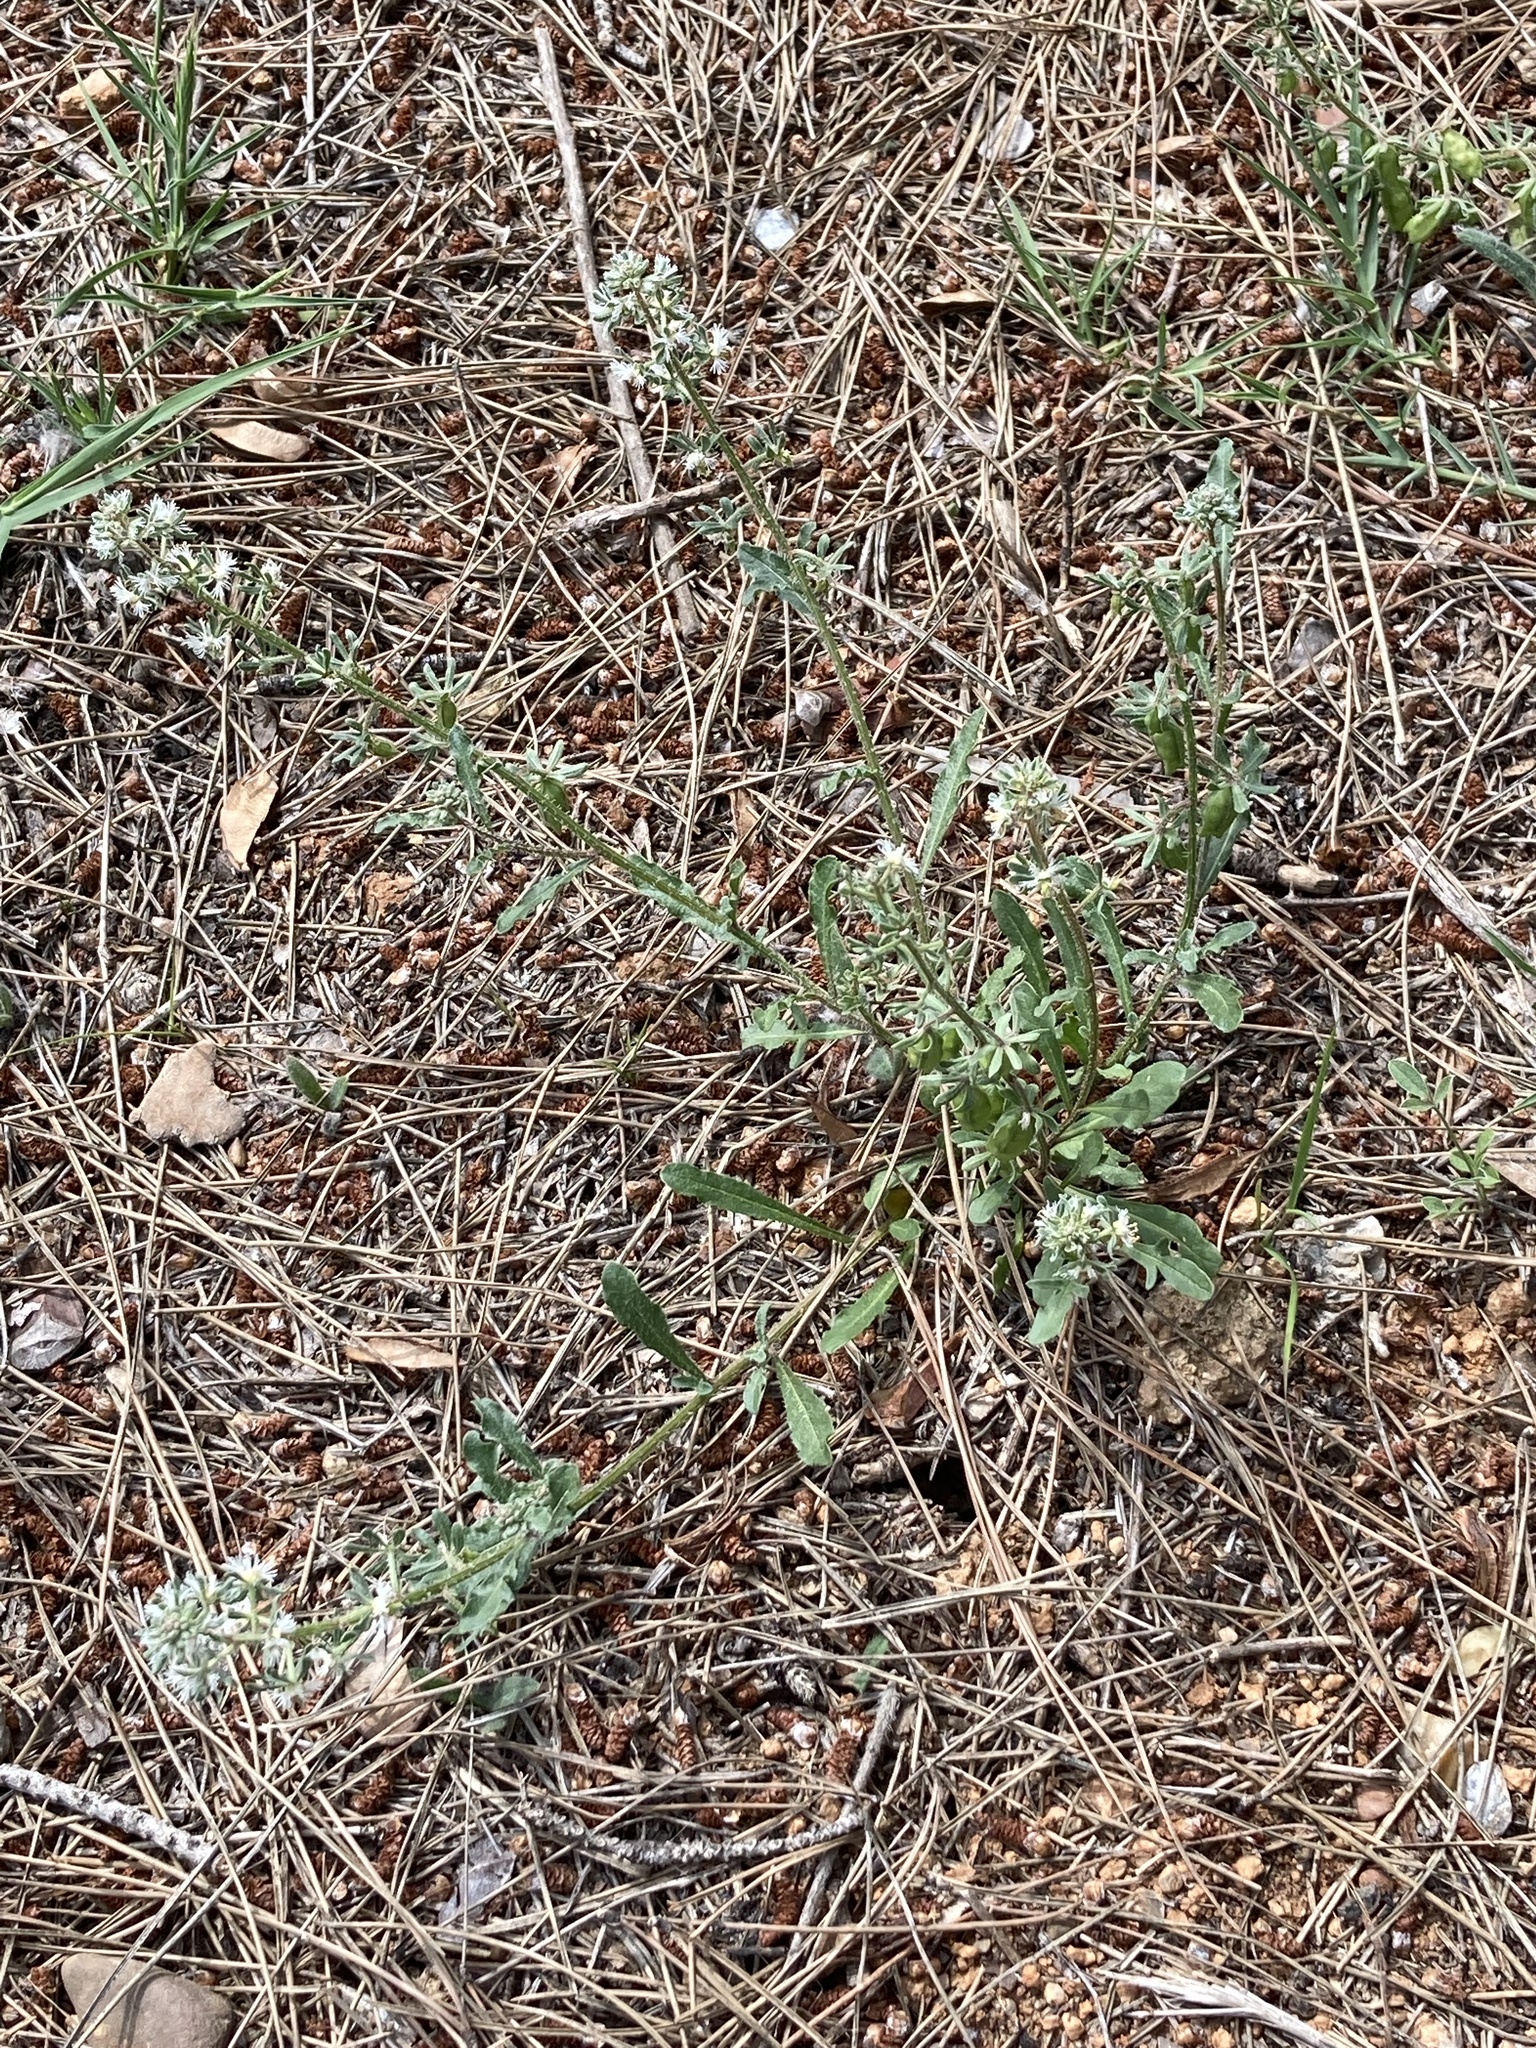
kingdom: Plantae
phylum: Tracheophyta
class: Magnoliopsida
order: Brassicales
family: Resedaceae
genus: Reseda
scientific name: Reseda phyteuma
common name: Corn mignonette
